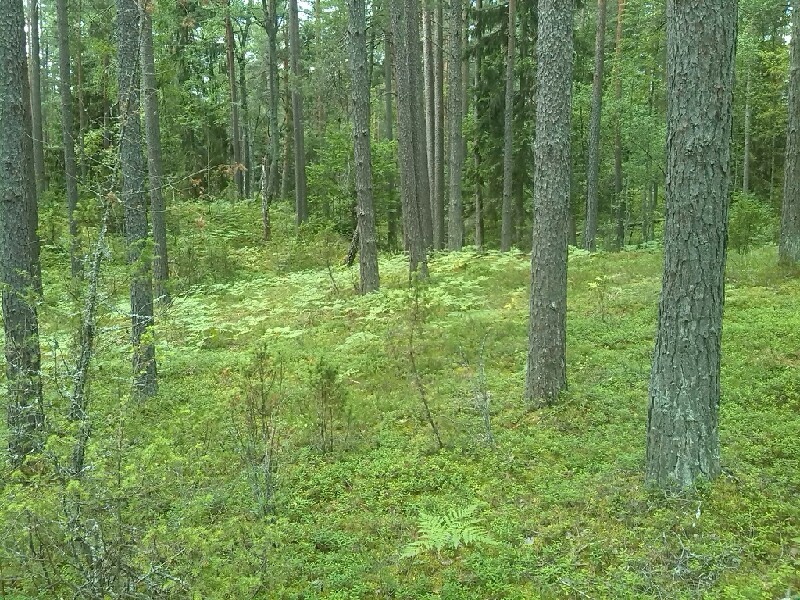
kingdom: Plantae
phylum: Tracheophyta
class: Polypodiopsida
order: Polypodiales
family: Dennstaedtiaceae
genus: Pteridium
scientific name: Pteridium aquilinum
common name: Bracken
